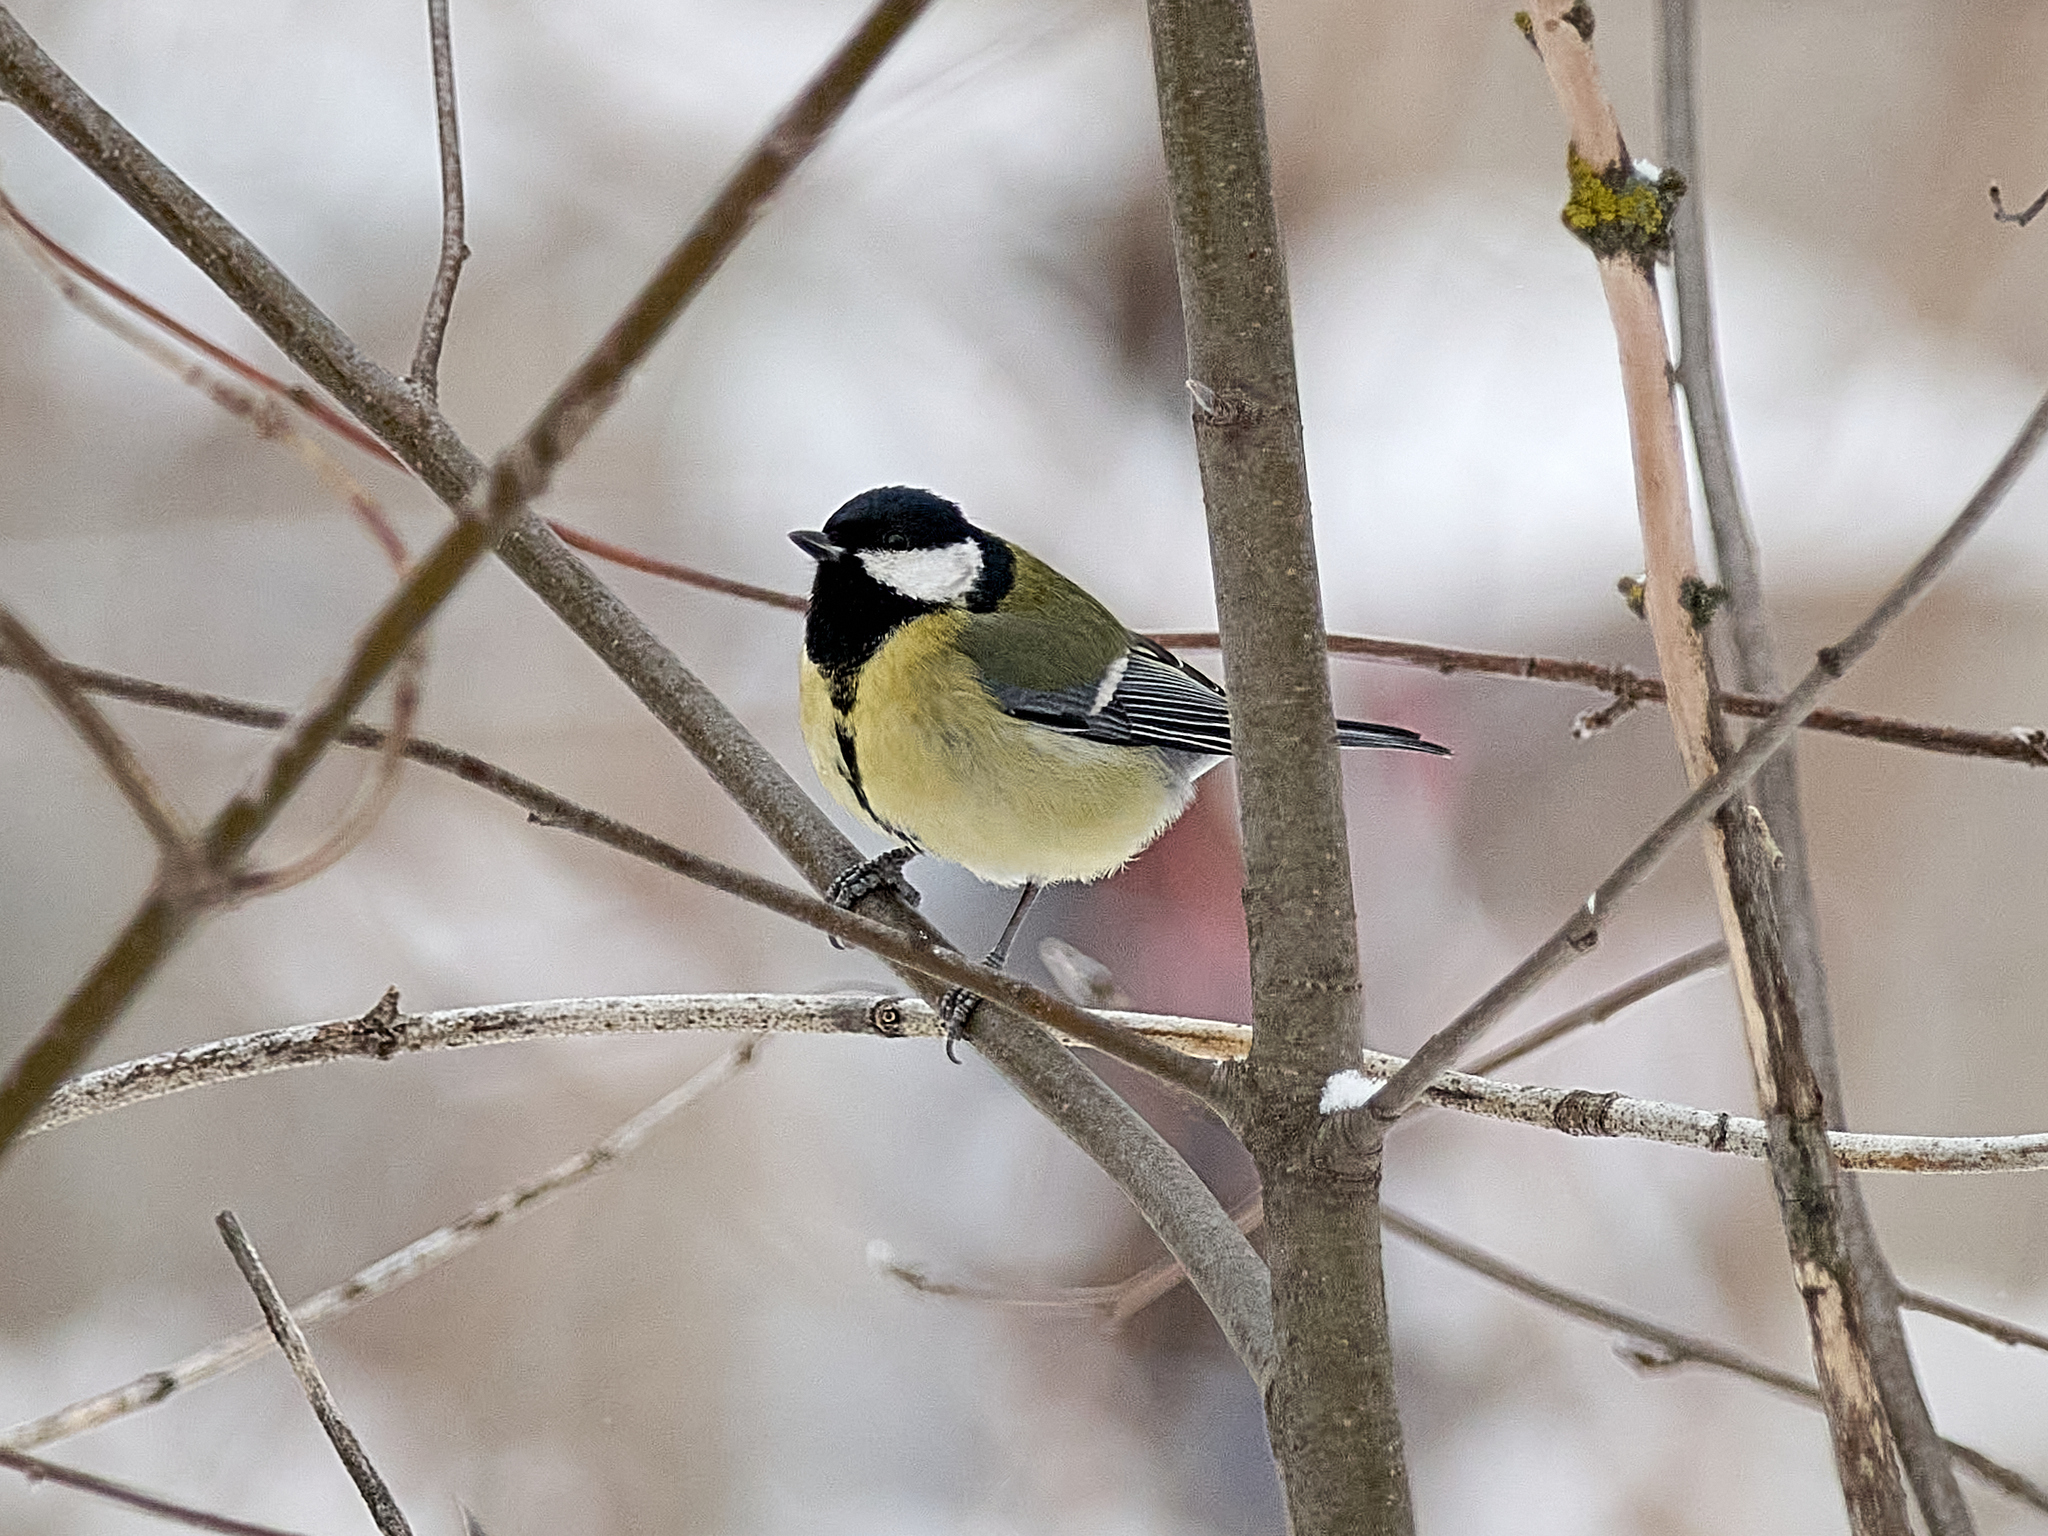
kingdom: Animalia
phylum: Chordata
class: Aves
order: Passeriformes
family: Paridae
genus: Parus
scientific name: Parus major
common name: Great tit
